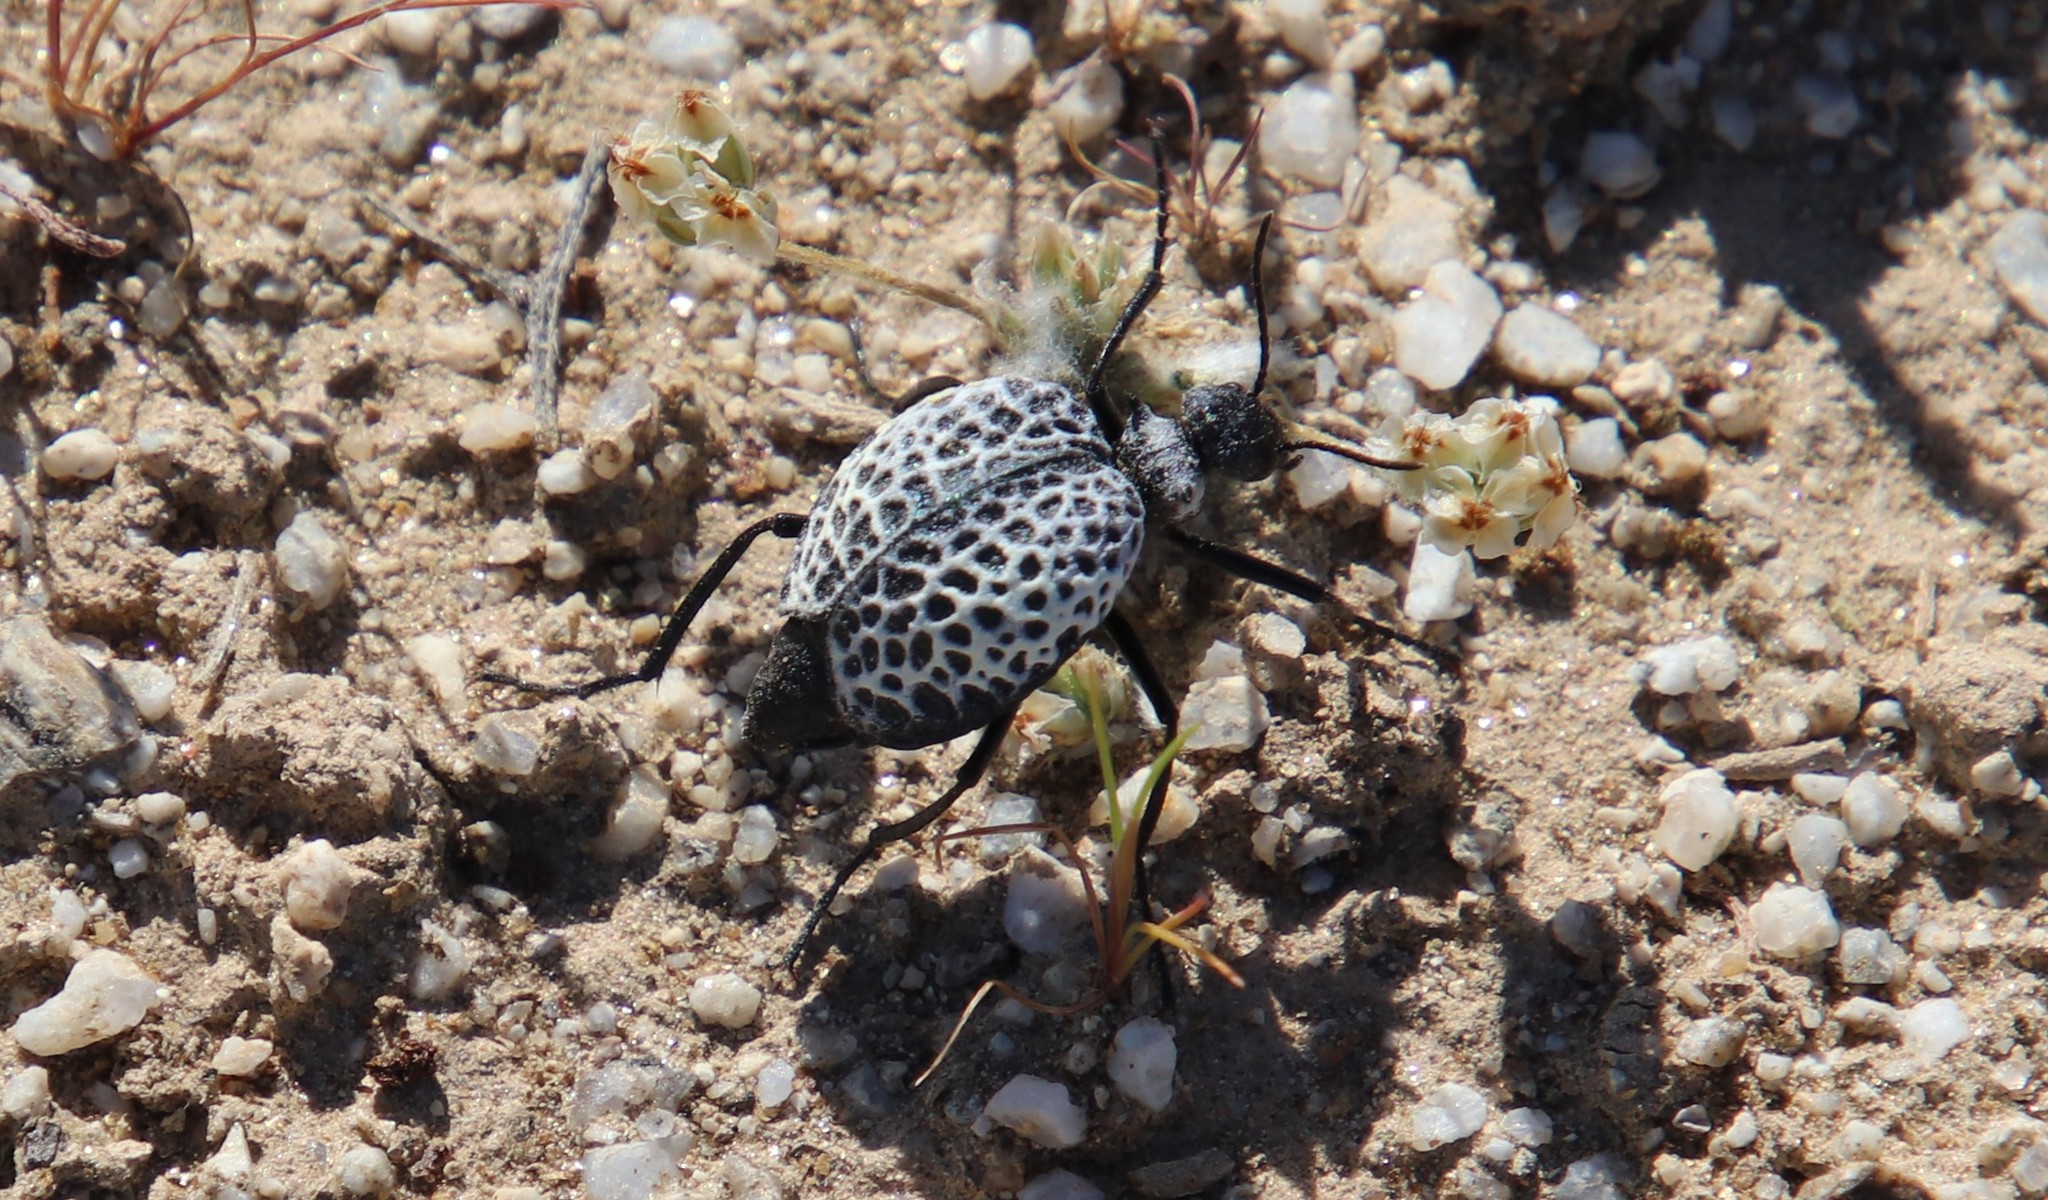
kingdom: Animalia
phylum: Arthropoda
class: Insecta
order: Coleoptera
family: Meloidae
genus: Cysteodemus
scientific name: Cysteodemus armatus
